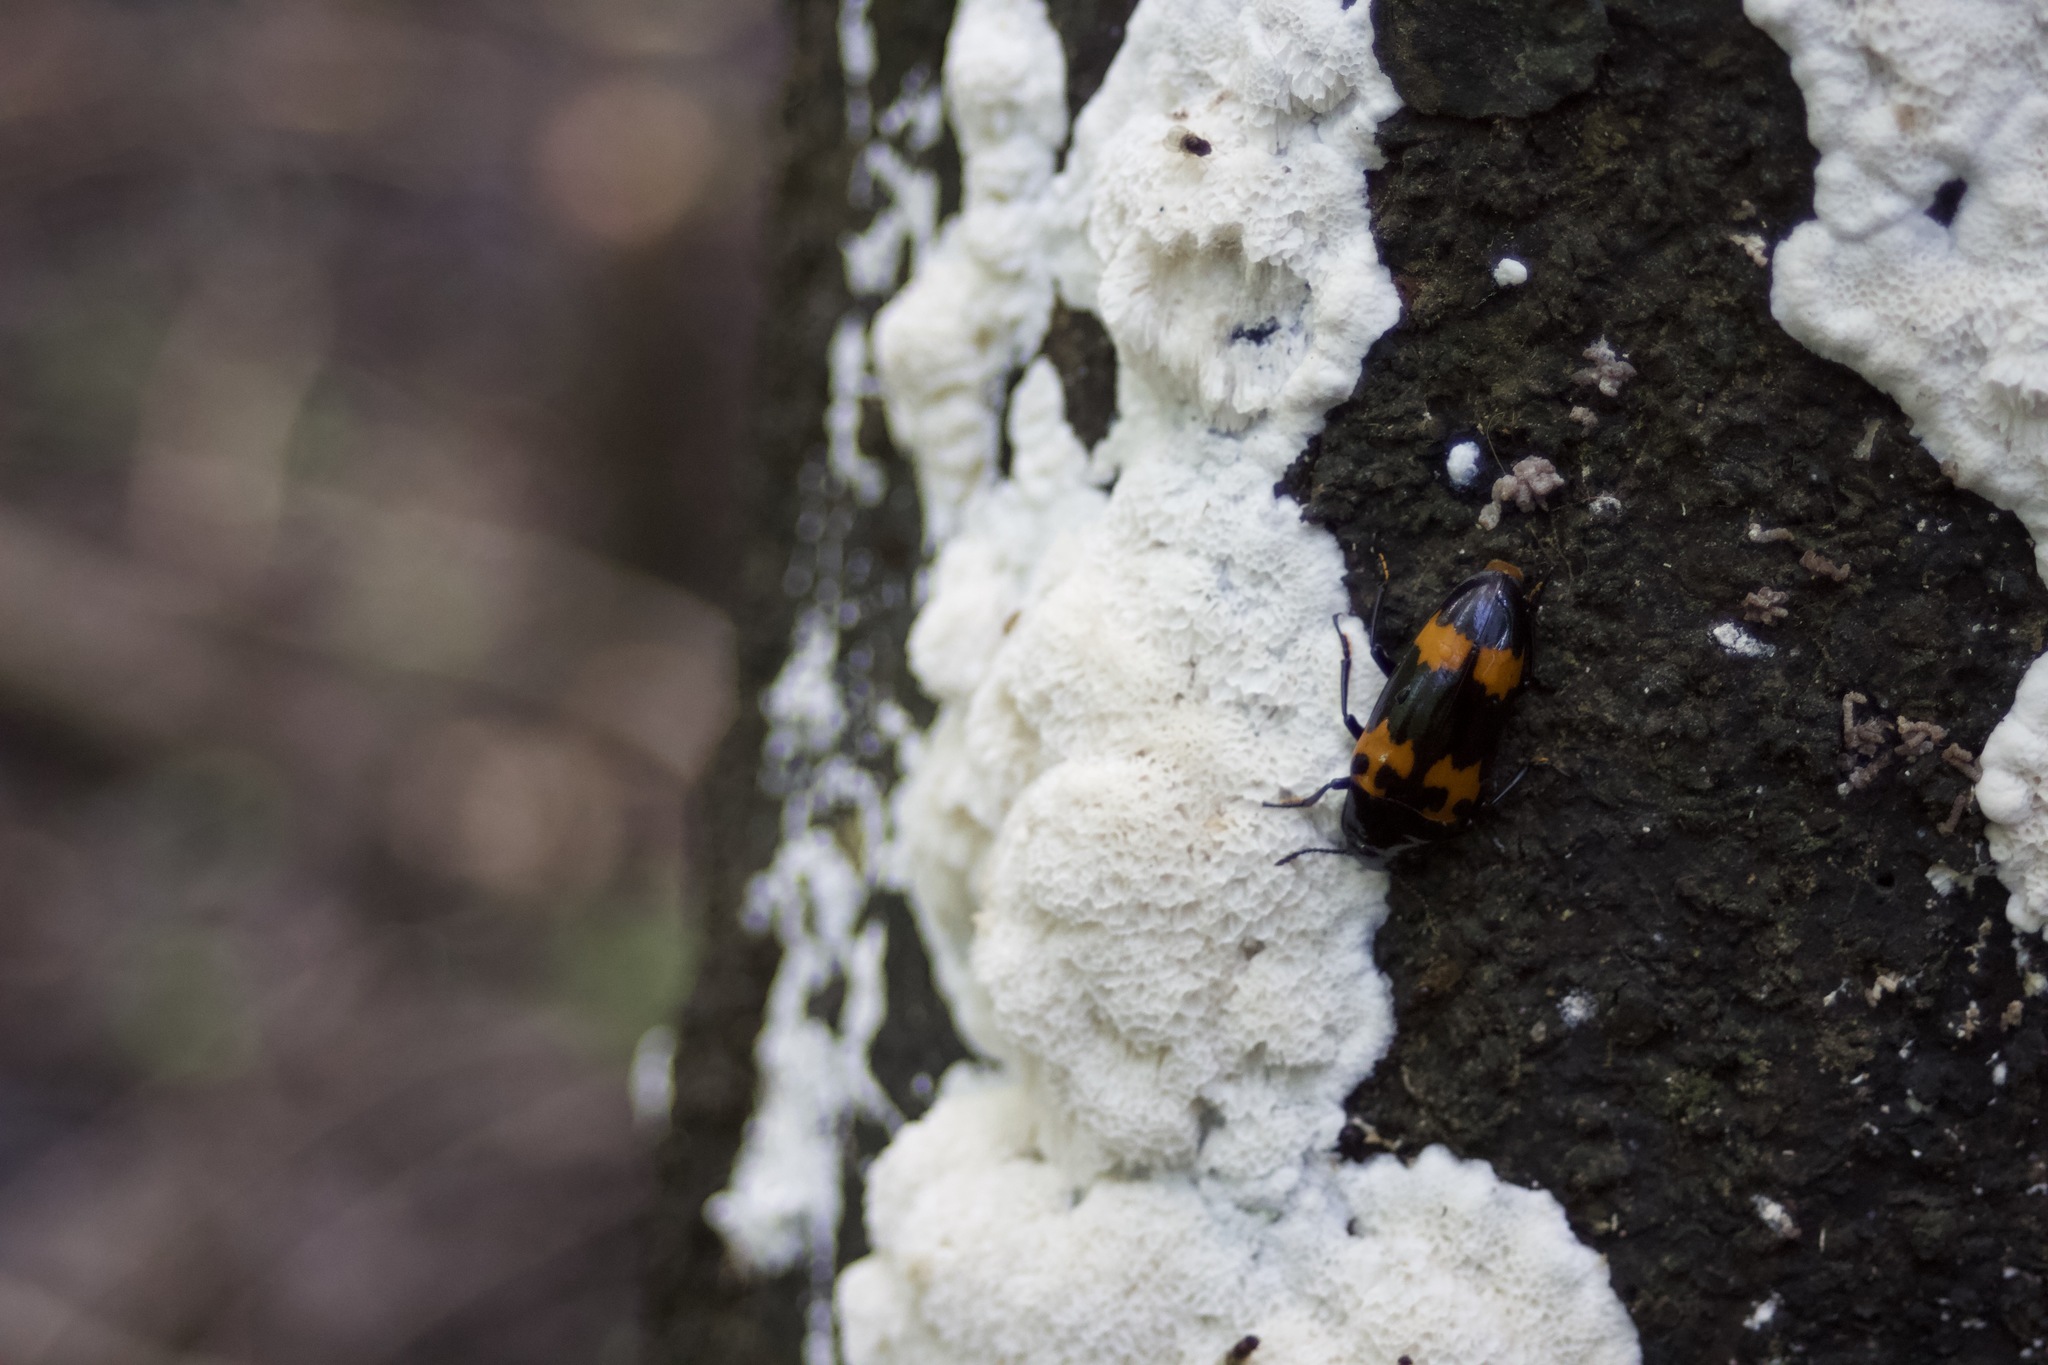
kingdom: Animalia
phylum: Arthropoda
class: Insecta
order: Coleoptera
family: Erotylidae
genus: Megalodacne
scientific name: Megalodacne heros
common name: Pleasing fungus beetle
